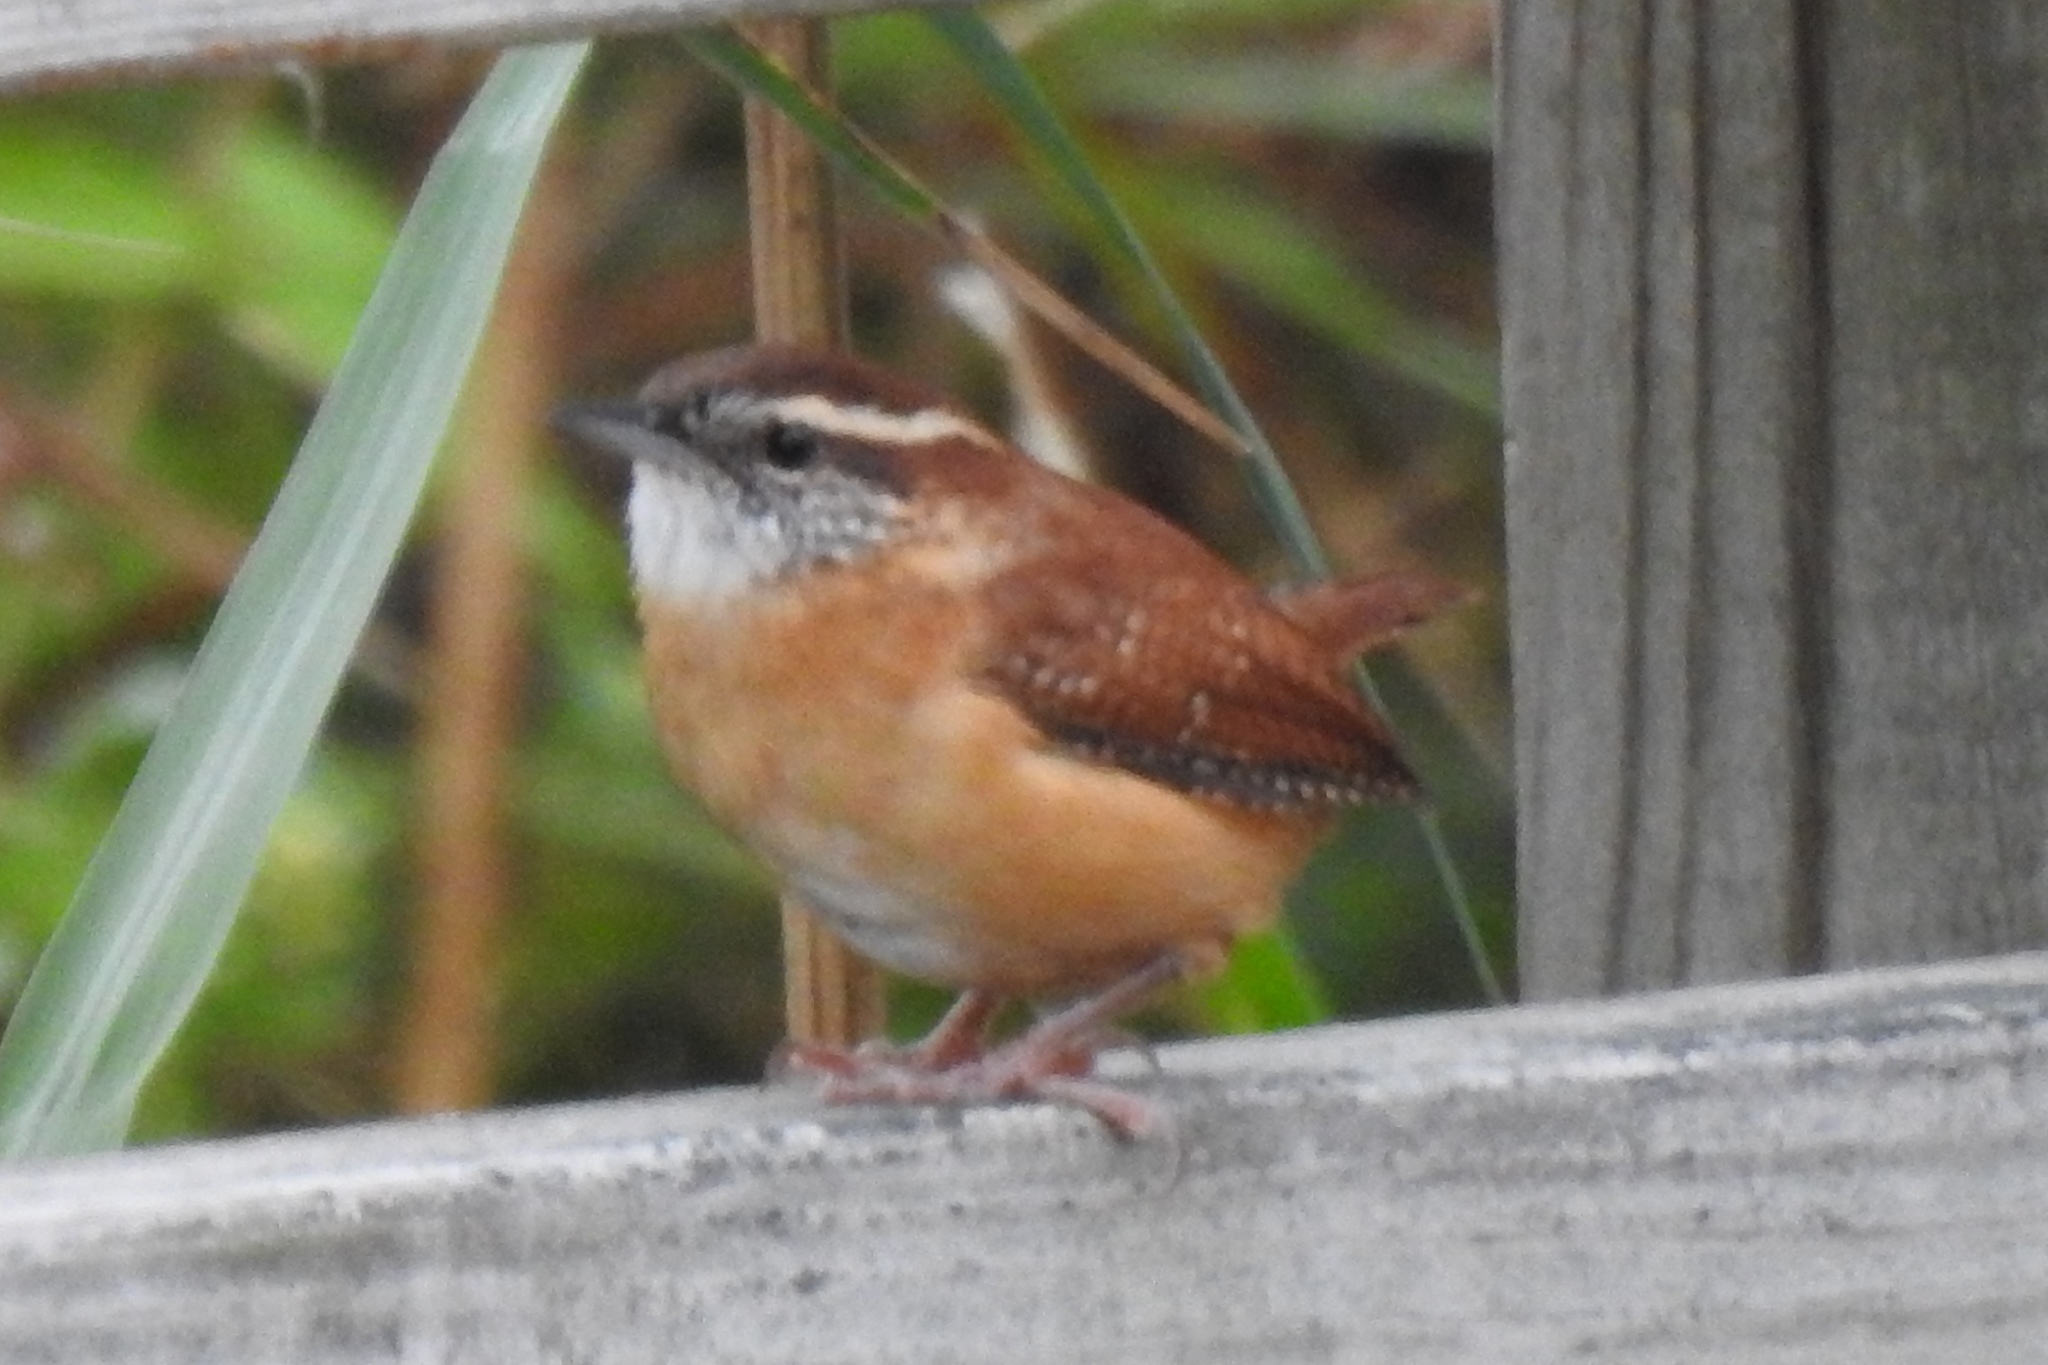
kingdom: Animalia
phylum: Chordata
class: Aves
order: Passeriformes
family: Troglodytidae
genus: Thryothorus
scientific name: Thryothorus ludovicianus
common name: Carolina wren
